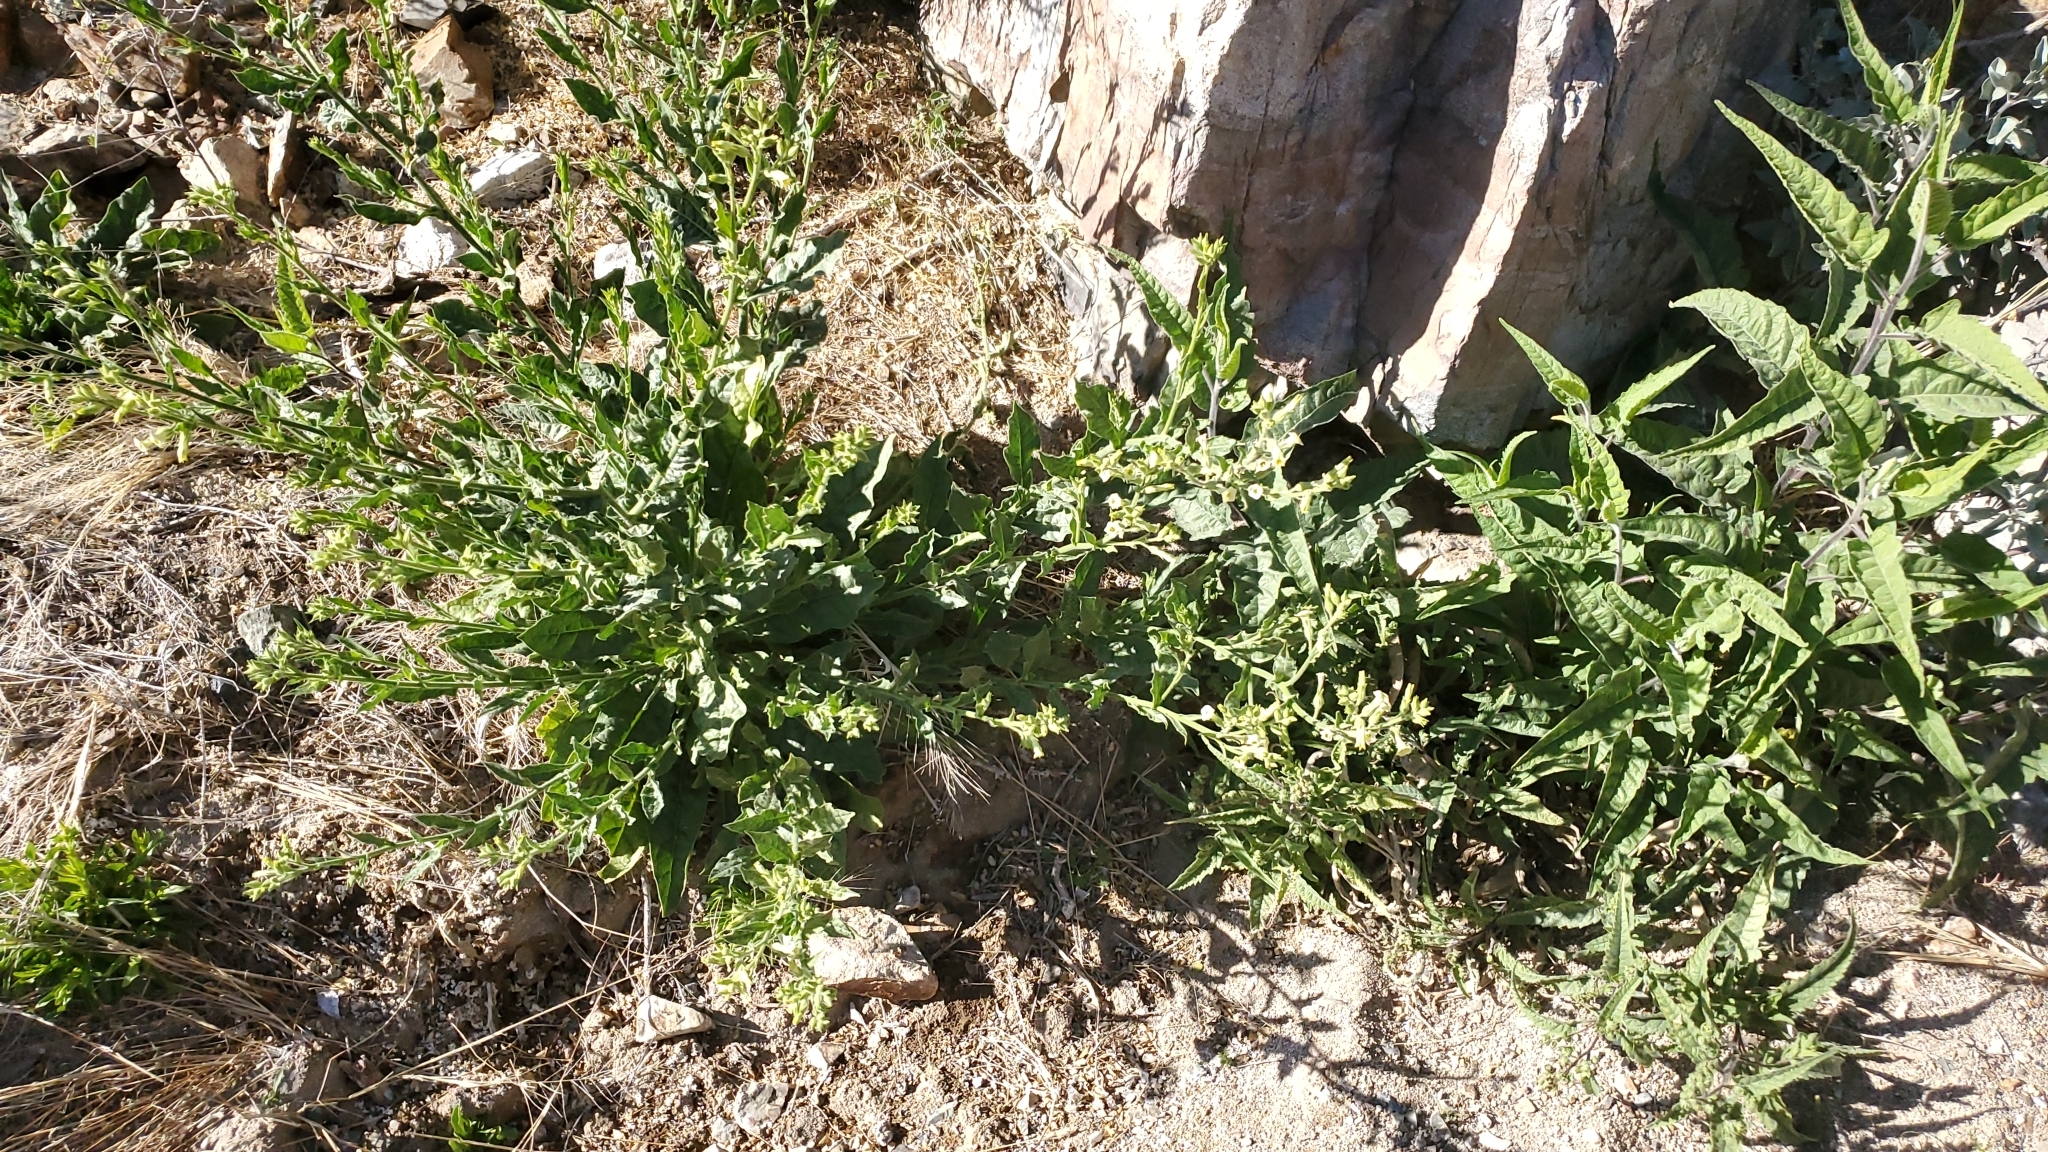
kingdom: Plantae
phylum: Tracheophyta
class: Magnoliopsida
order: Solanales
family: Solanaceae
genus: Nicotiana
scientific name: Nicotiana obtusifolia
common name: Desert tobacco
